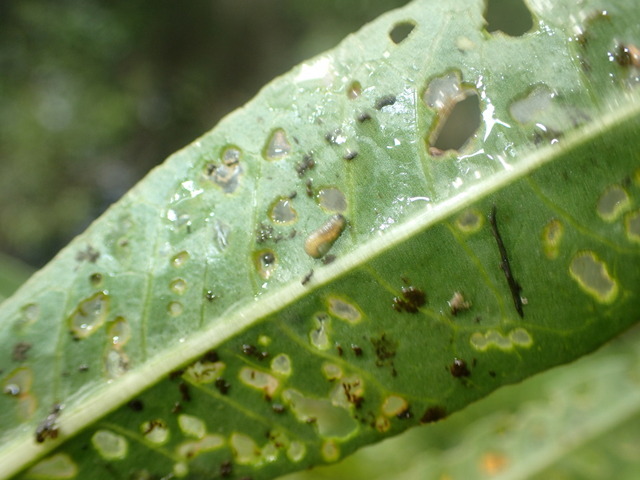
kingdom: Animalia
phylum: Arthropoda
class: Insecta
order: Coleoptera
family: Chrysomelidae
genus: Agasicles
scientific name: Agasicles hygrophila
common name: Alligatorweed flea beetle
